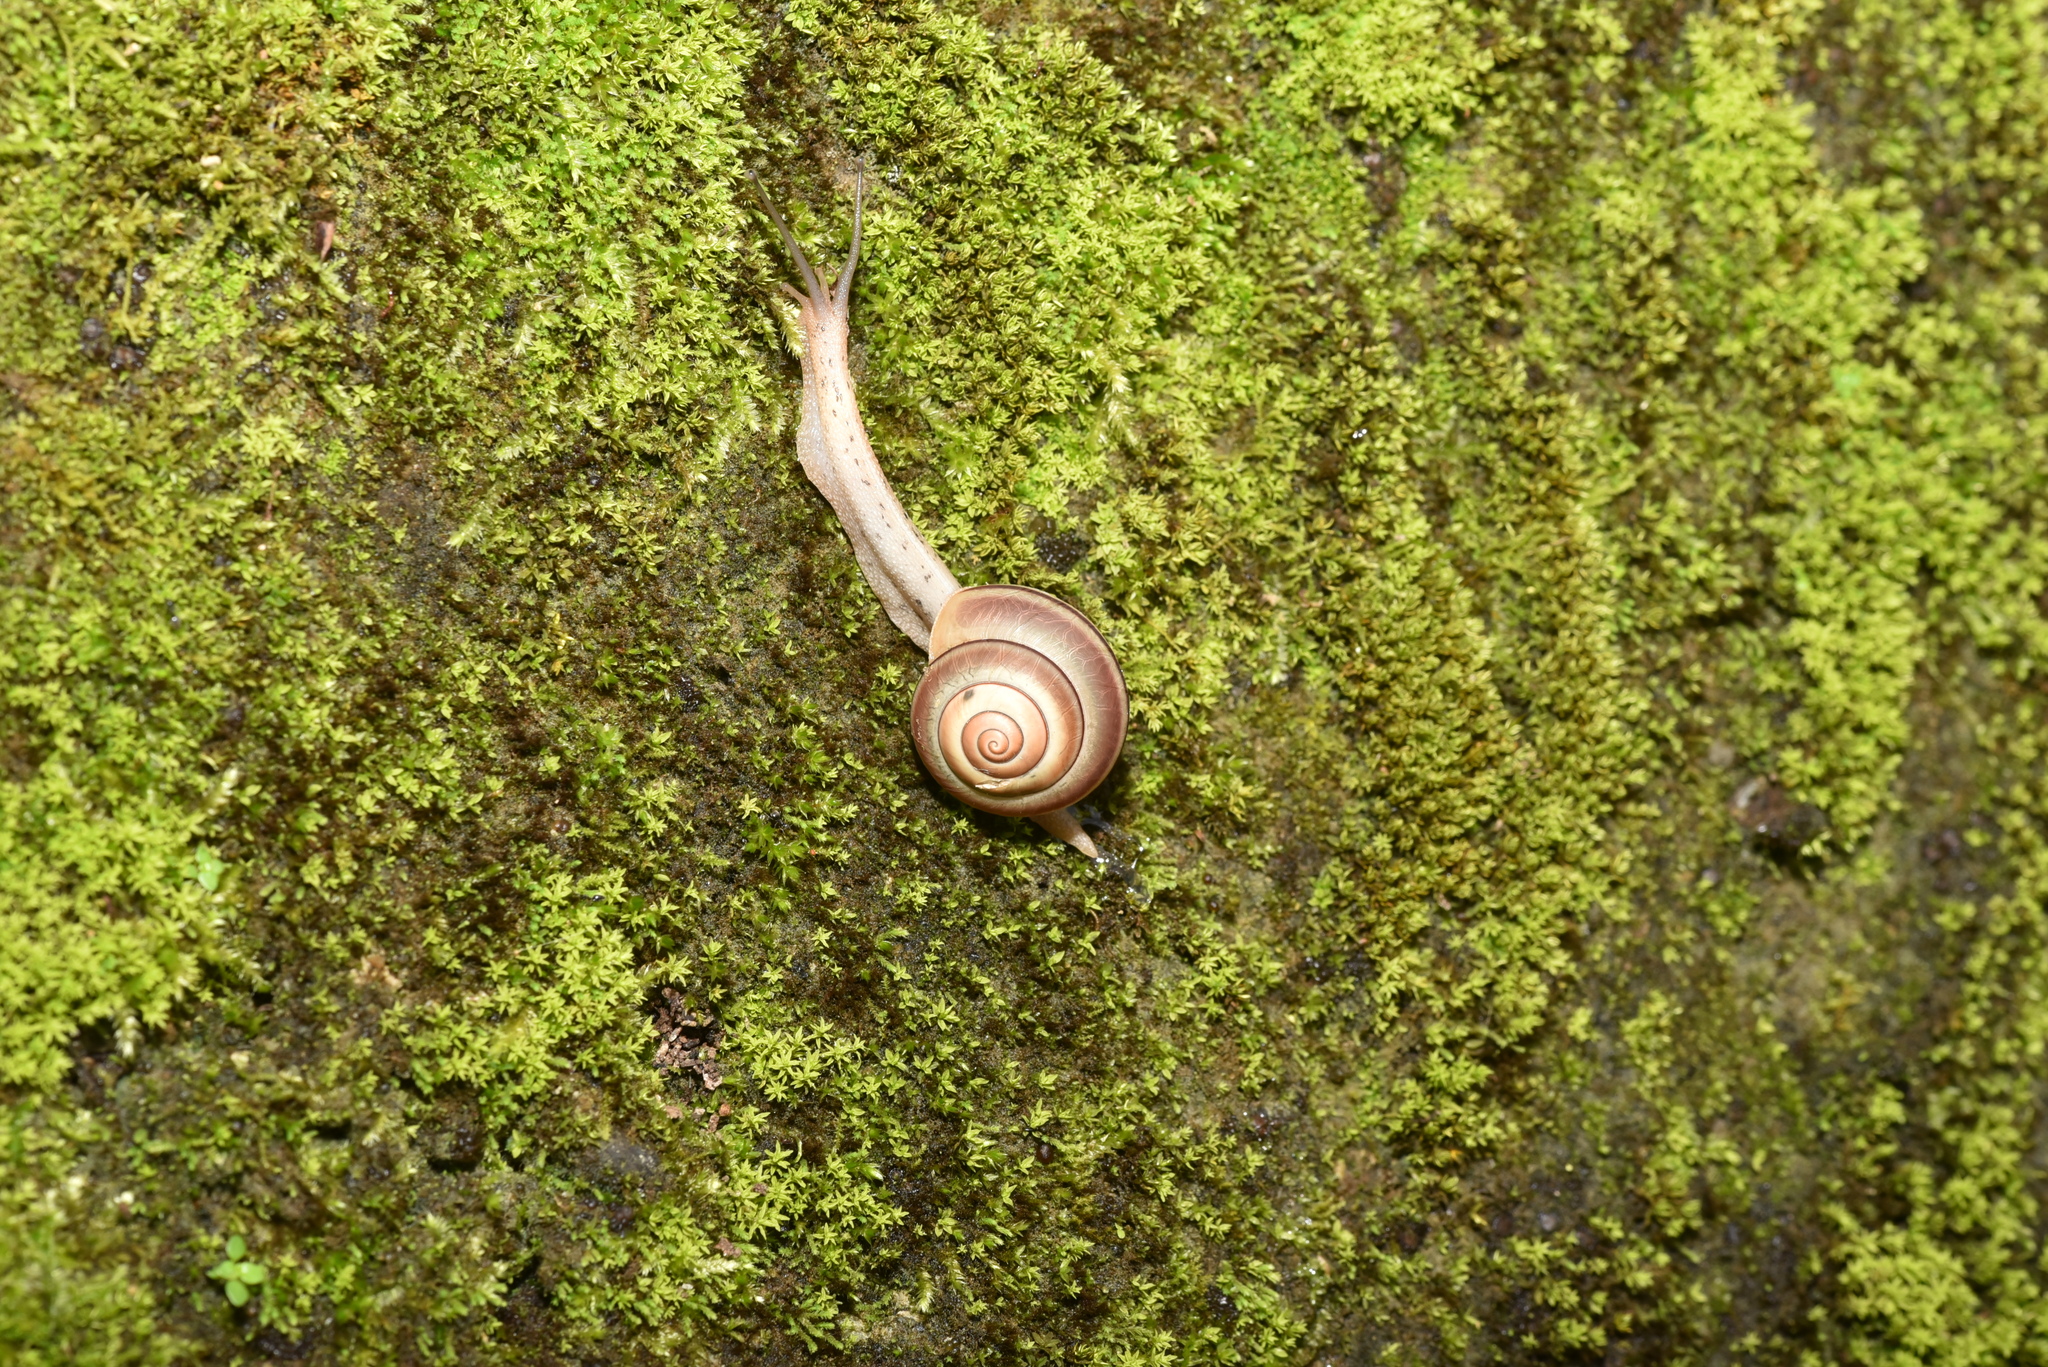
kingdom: Animalia
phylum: Mollusca
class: Gastropoda
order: Stylommatophora
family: Camaenidae
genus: Satsuma
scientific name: Satsuma wenshini
